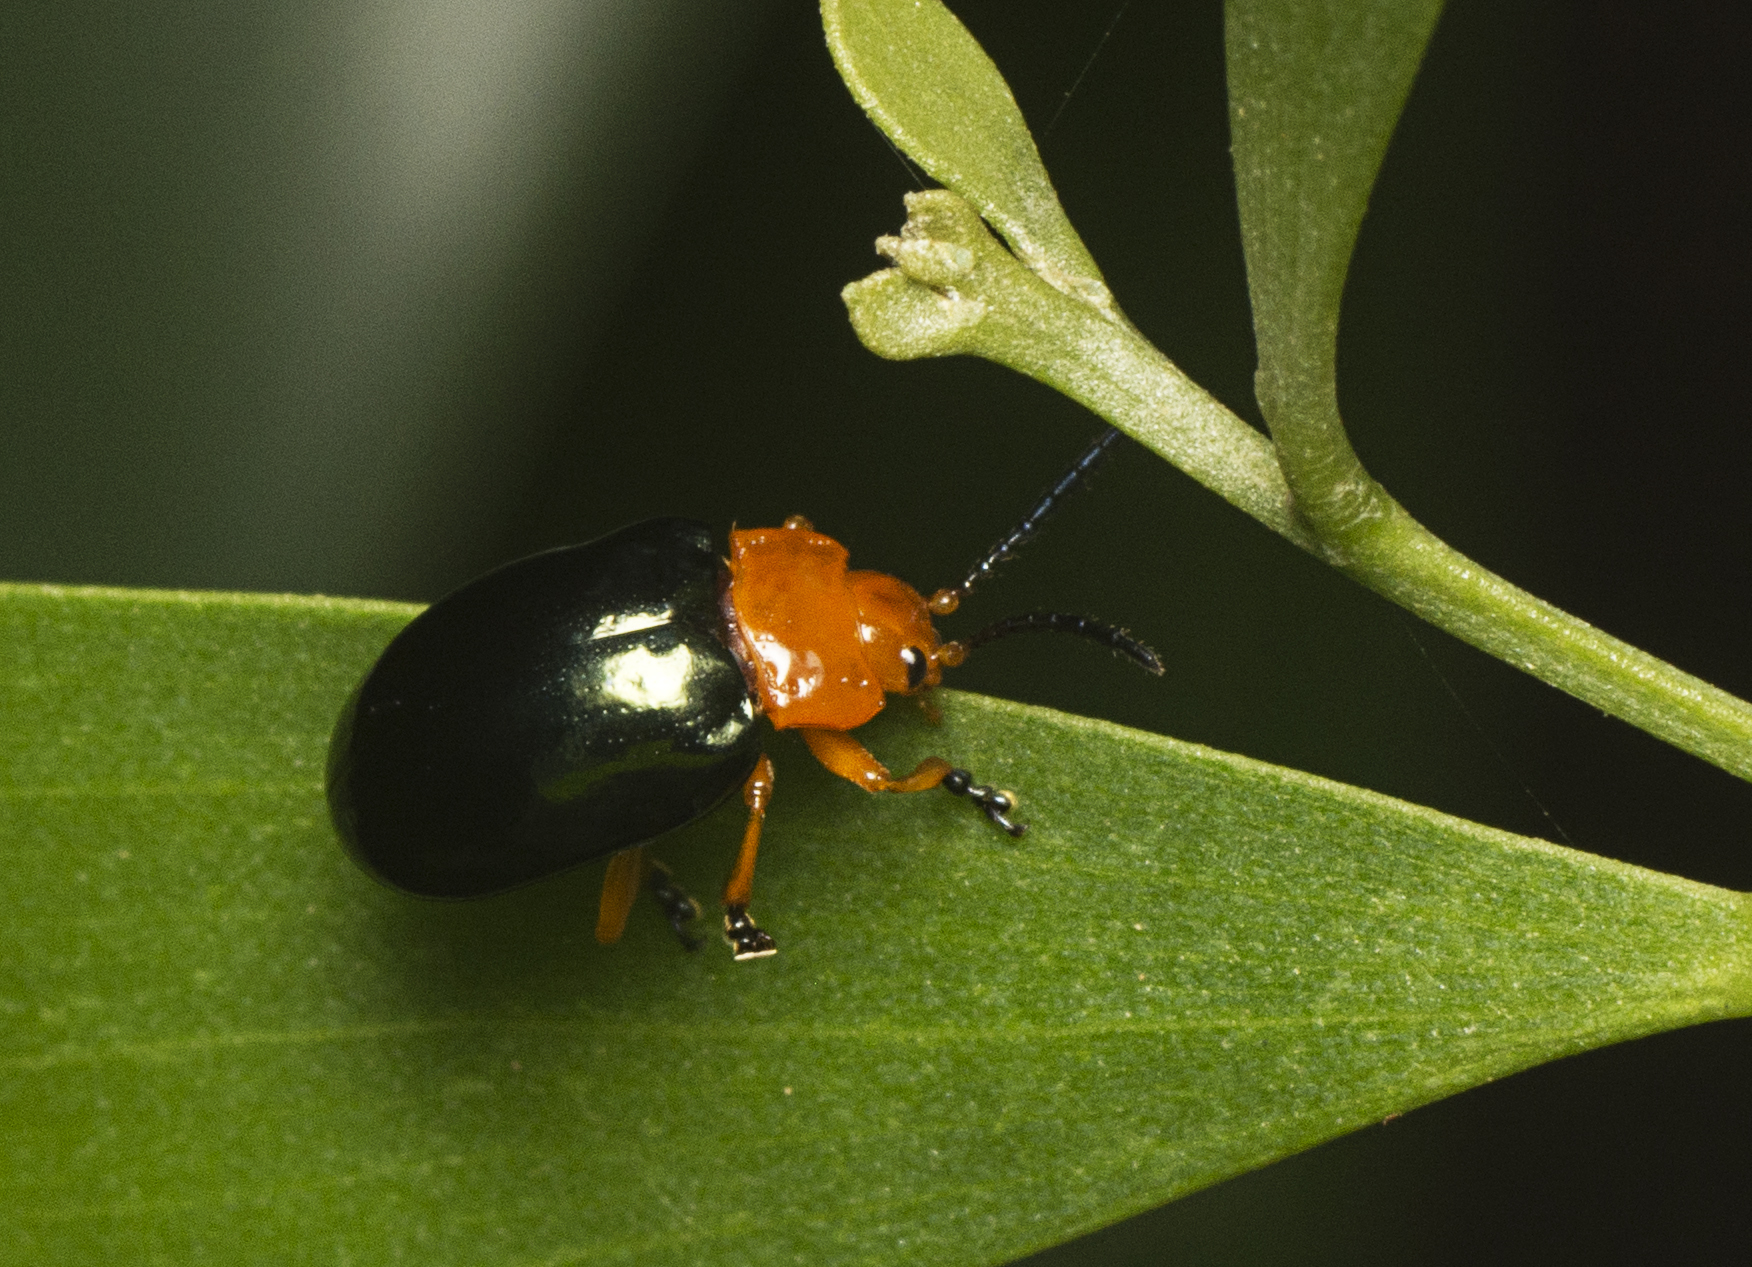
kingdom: Animalia
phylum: Arthropoda
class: Insecta
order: Coleoptera
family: Chrysomelidae
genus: Lamprolina
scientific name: Lamprolina
